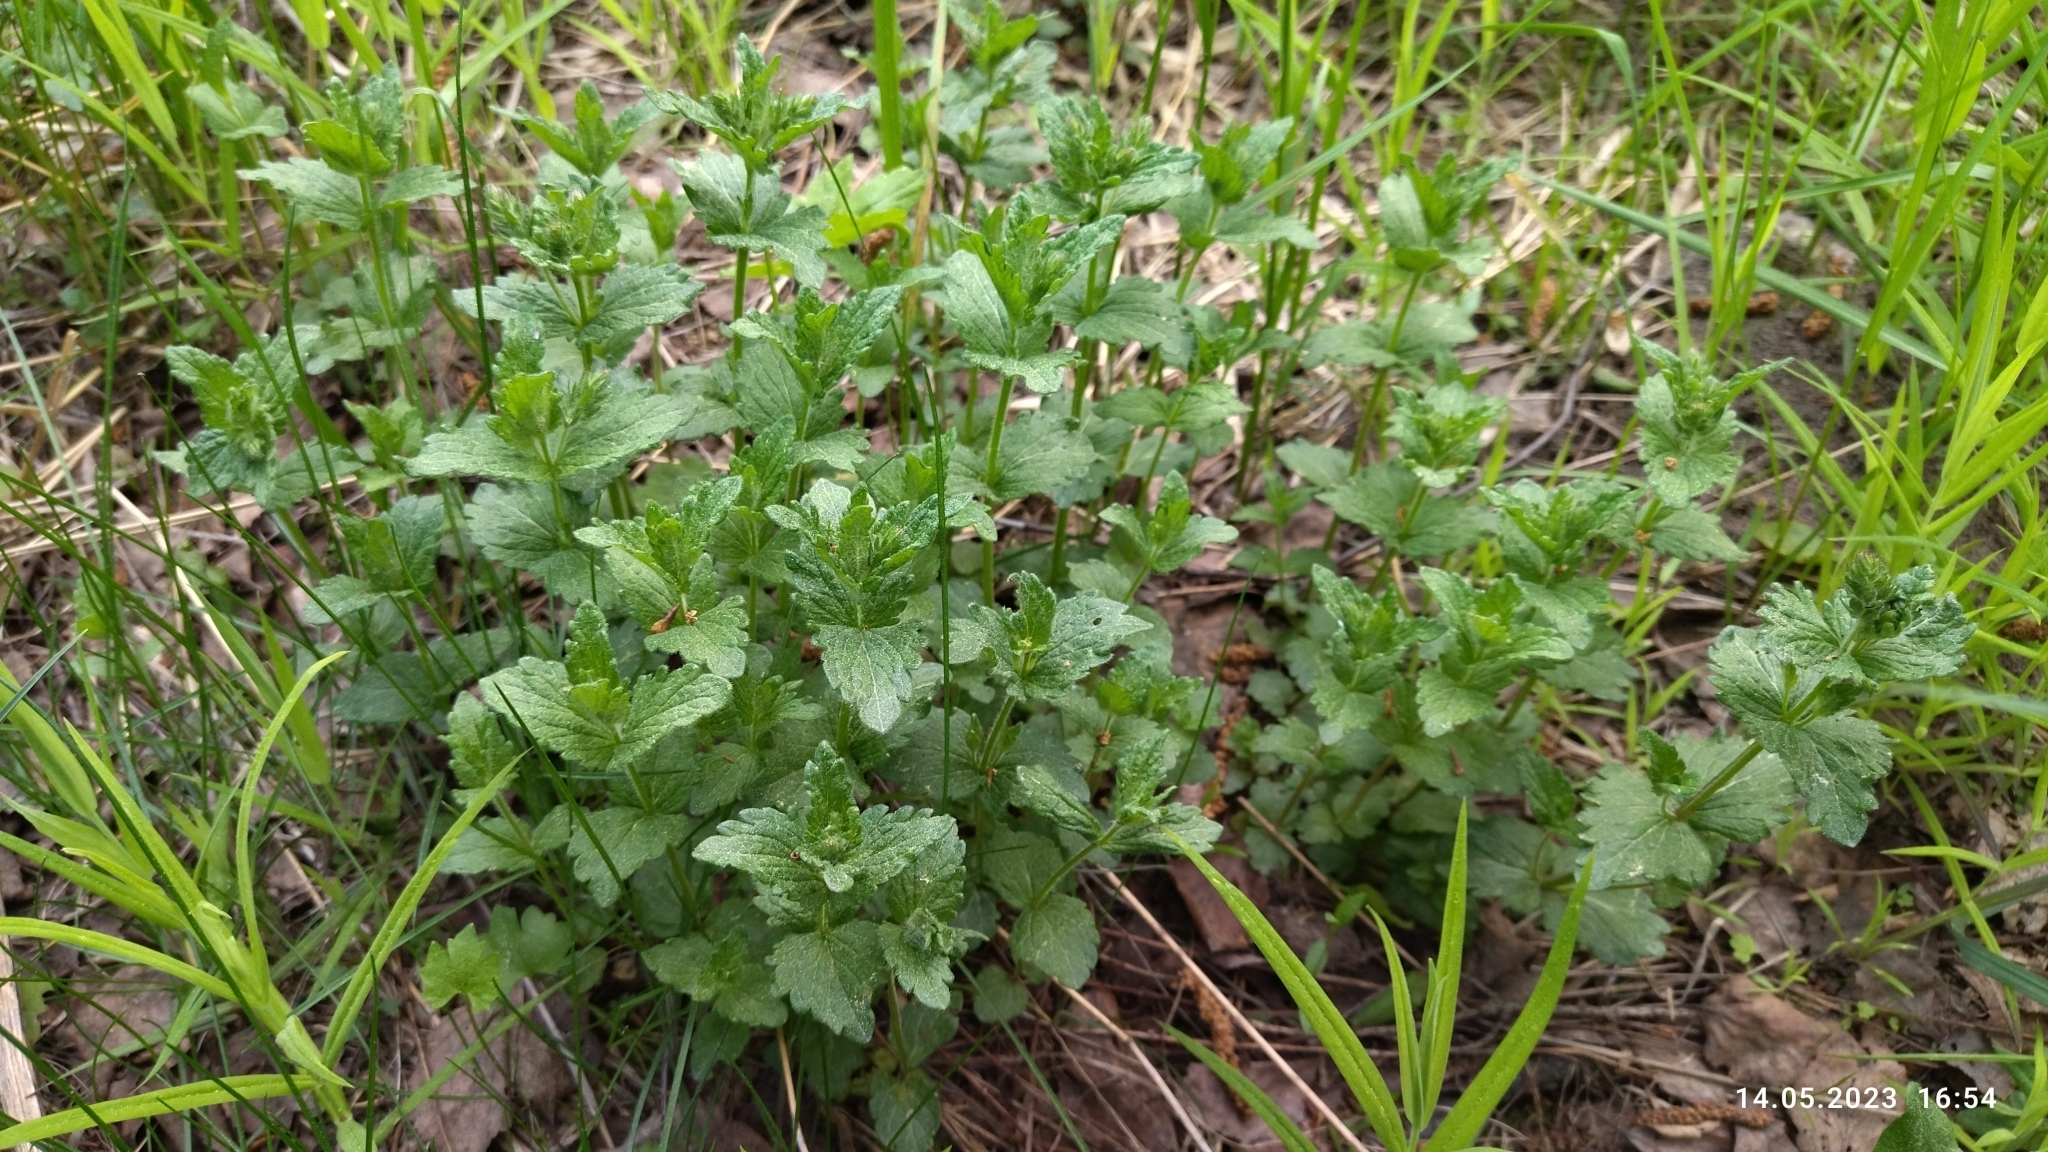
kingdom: Plantae
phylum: Tracheophyta
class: Magnoliopsida
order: Lamiales
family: Plantaginaceae
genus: Veronica
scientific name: Veronica chamaedrys
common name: Germander speedwell
